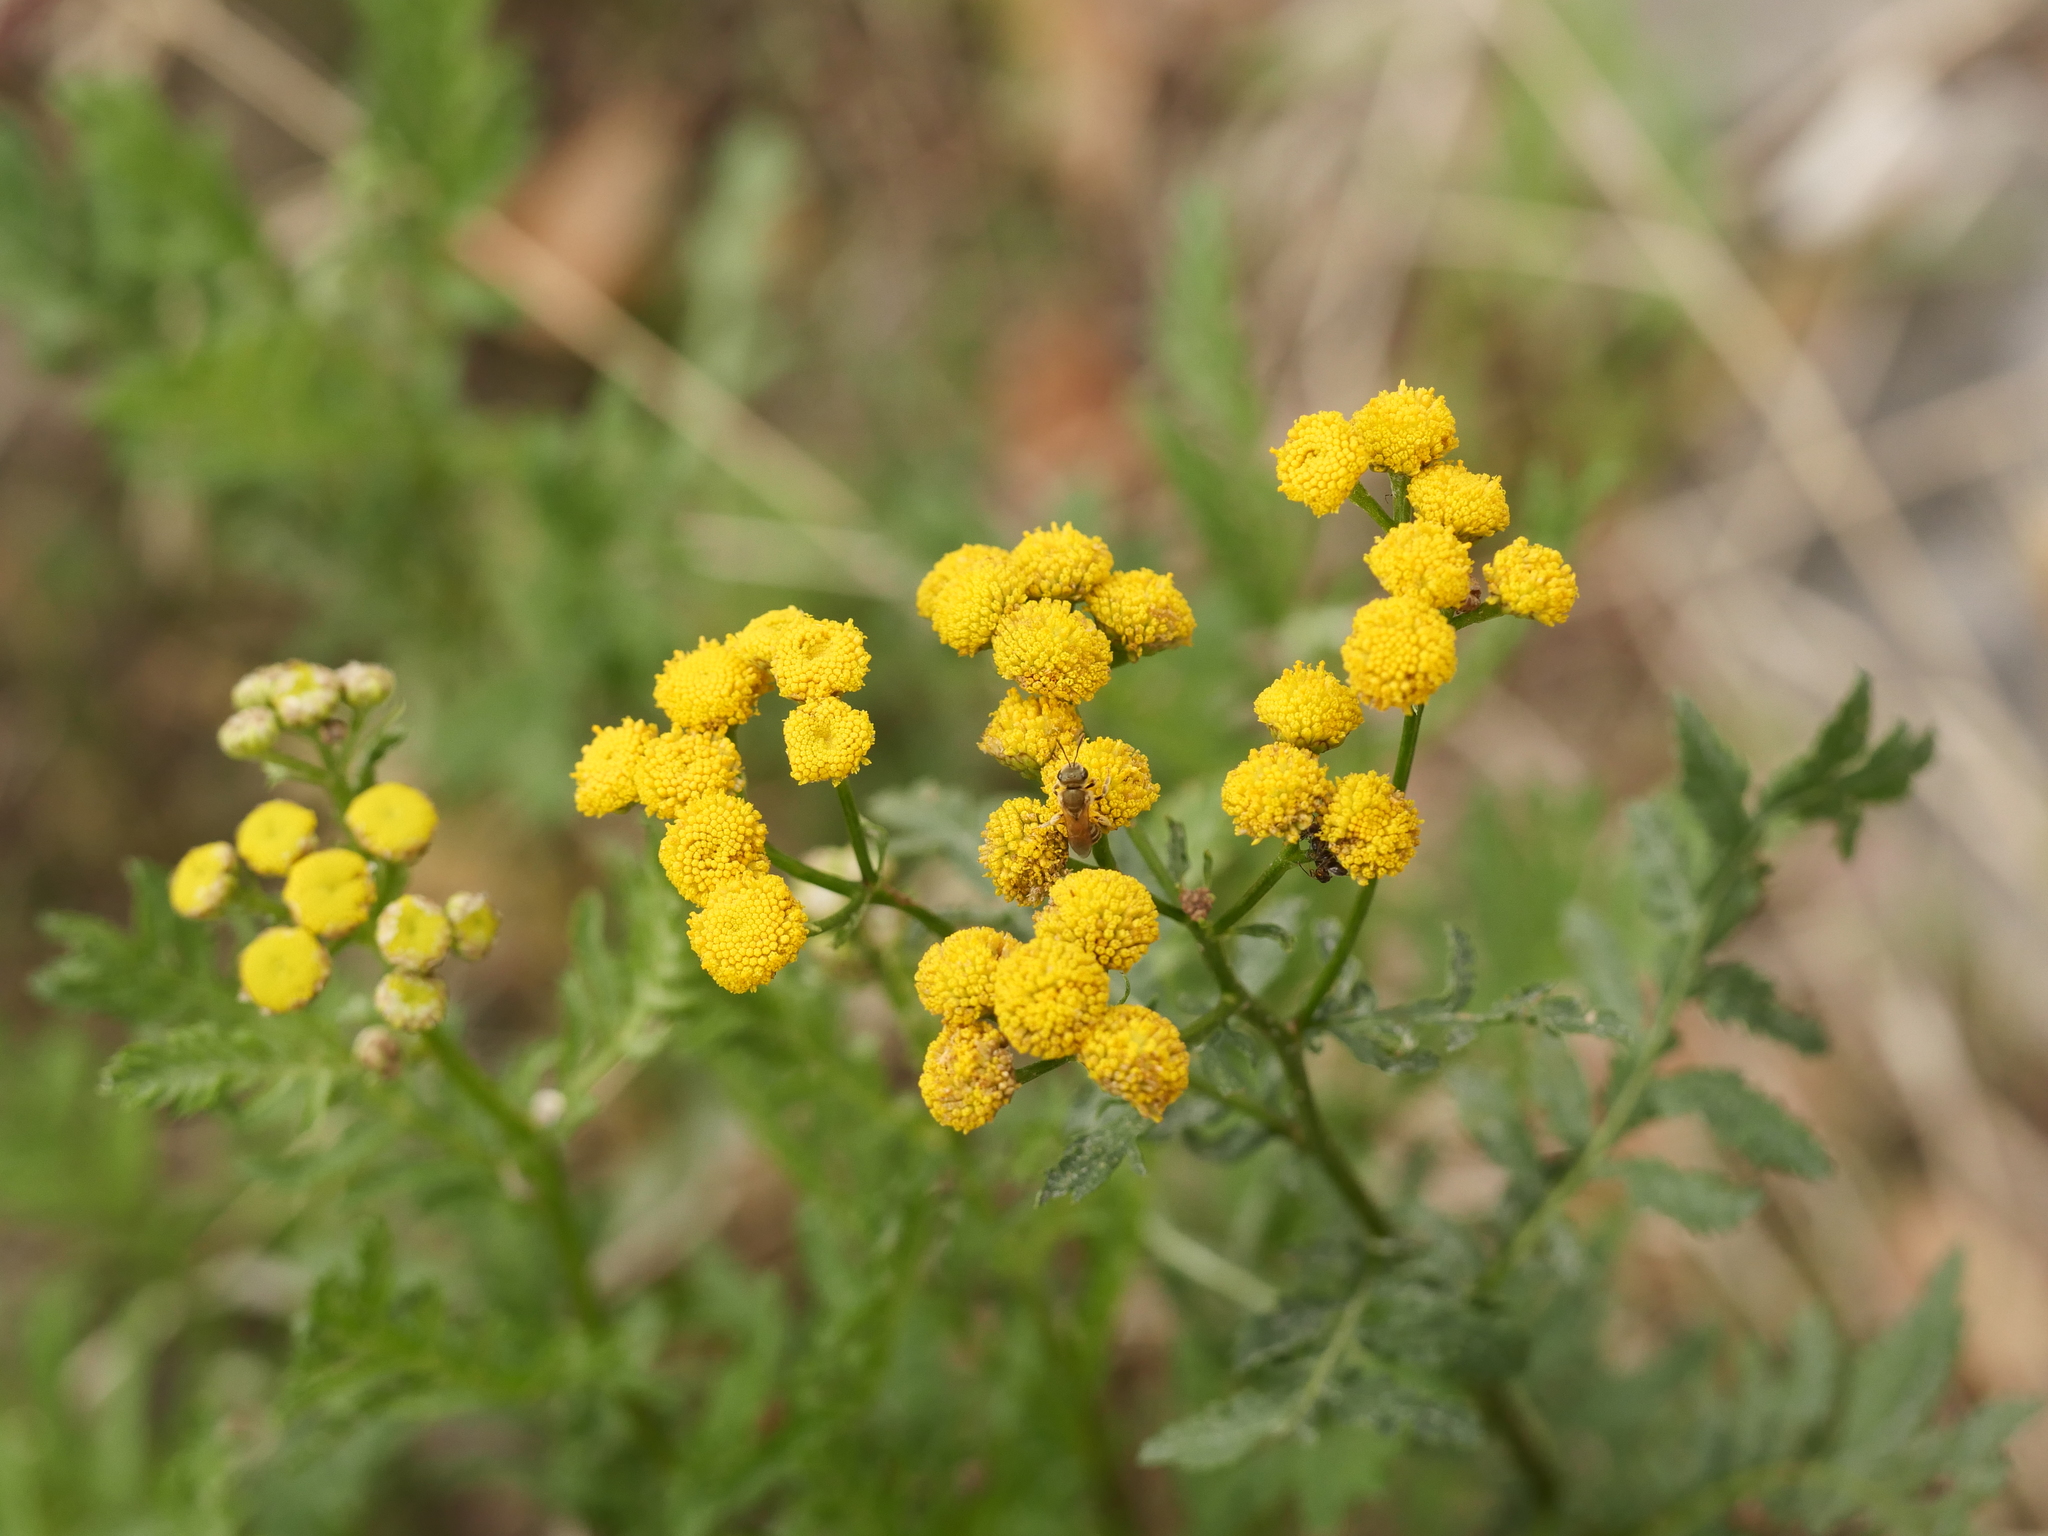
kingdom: Plantae
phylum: Tracheophyta
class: Magnoliopsida
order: Asterales
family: Asteraceae
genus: Tanacetum
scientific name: Tanacetum vulgare
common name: Common tansy
